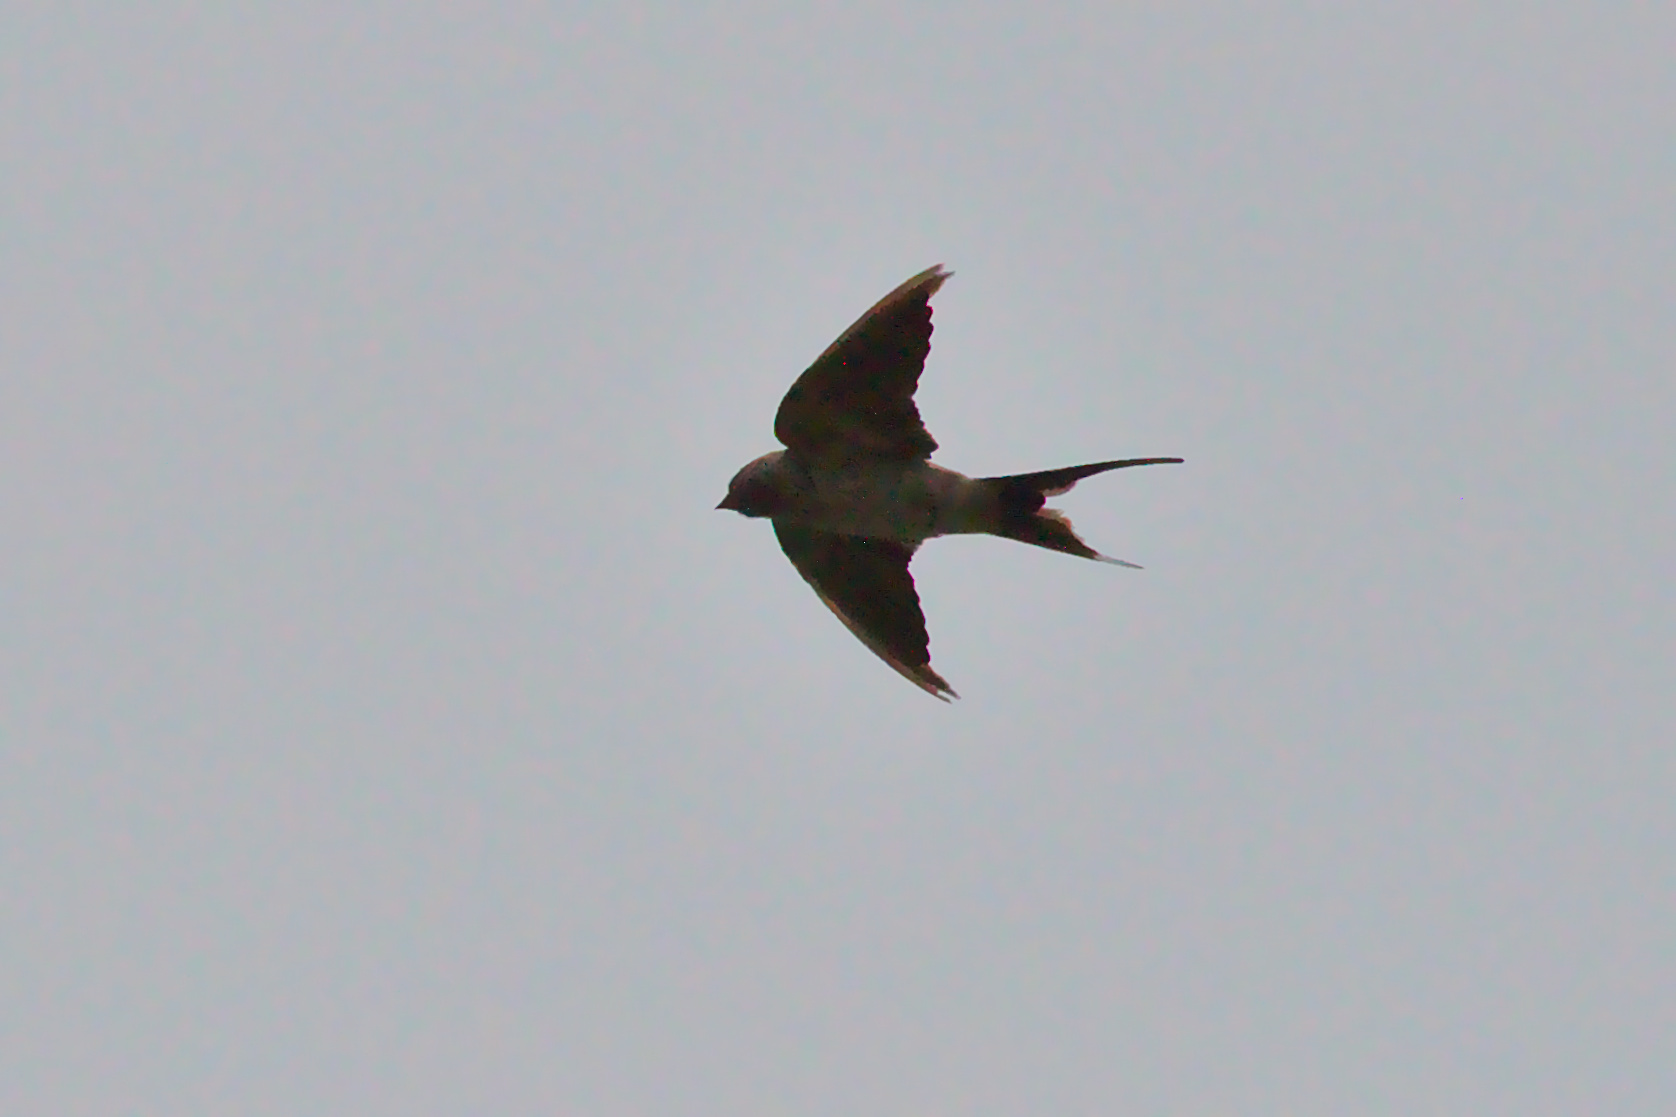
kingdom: Animalia
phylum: Chordata
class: Aves
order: Passeriformes
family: Hirundinidae
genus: Hirundo
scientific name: Hirundo rustica
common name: Barn swallow
